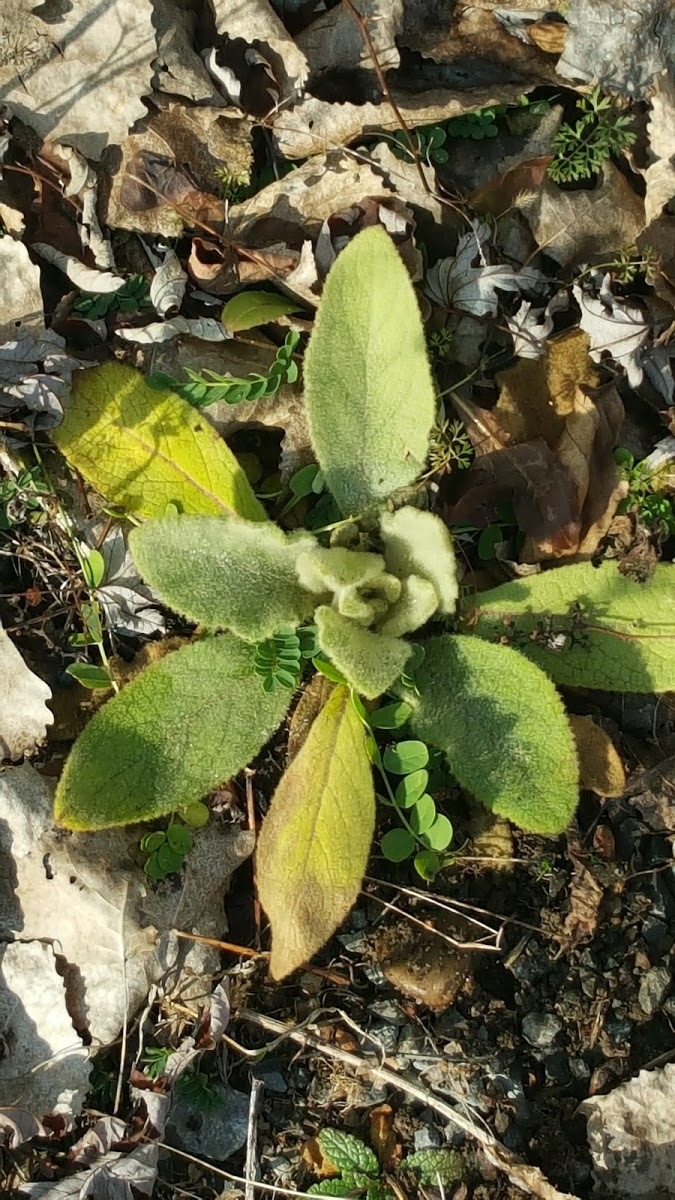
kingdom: Plantae
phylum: Tracheophyta
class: Magnoliopsida
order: Lamiales
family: Scrophulariaceae
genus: Verbascum
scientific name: Verbascum thapsus
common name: Common mullein
